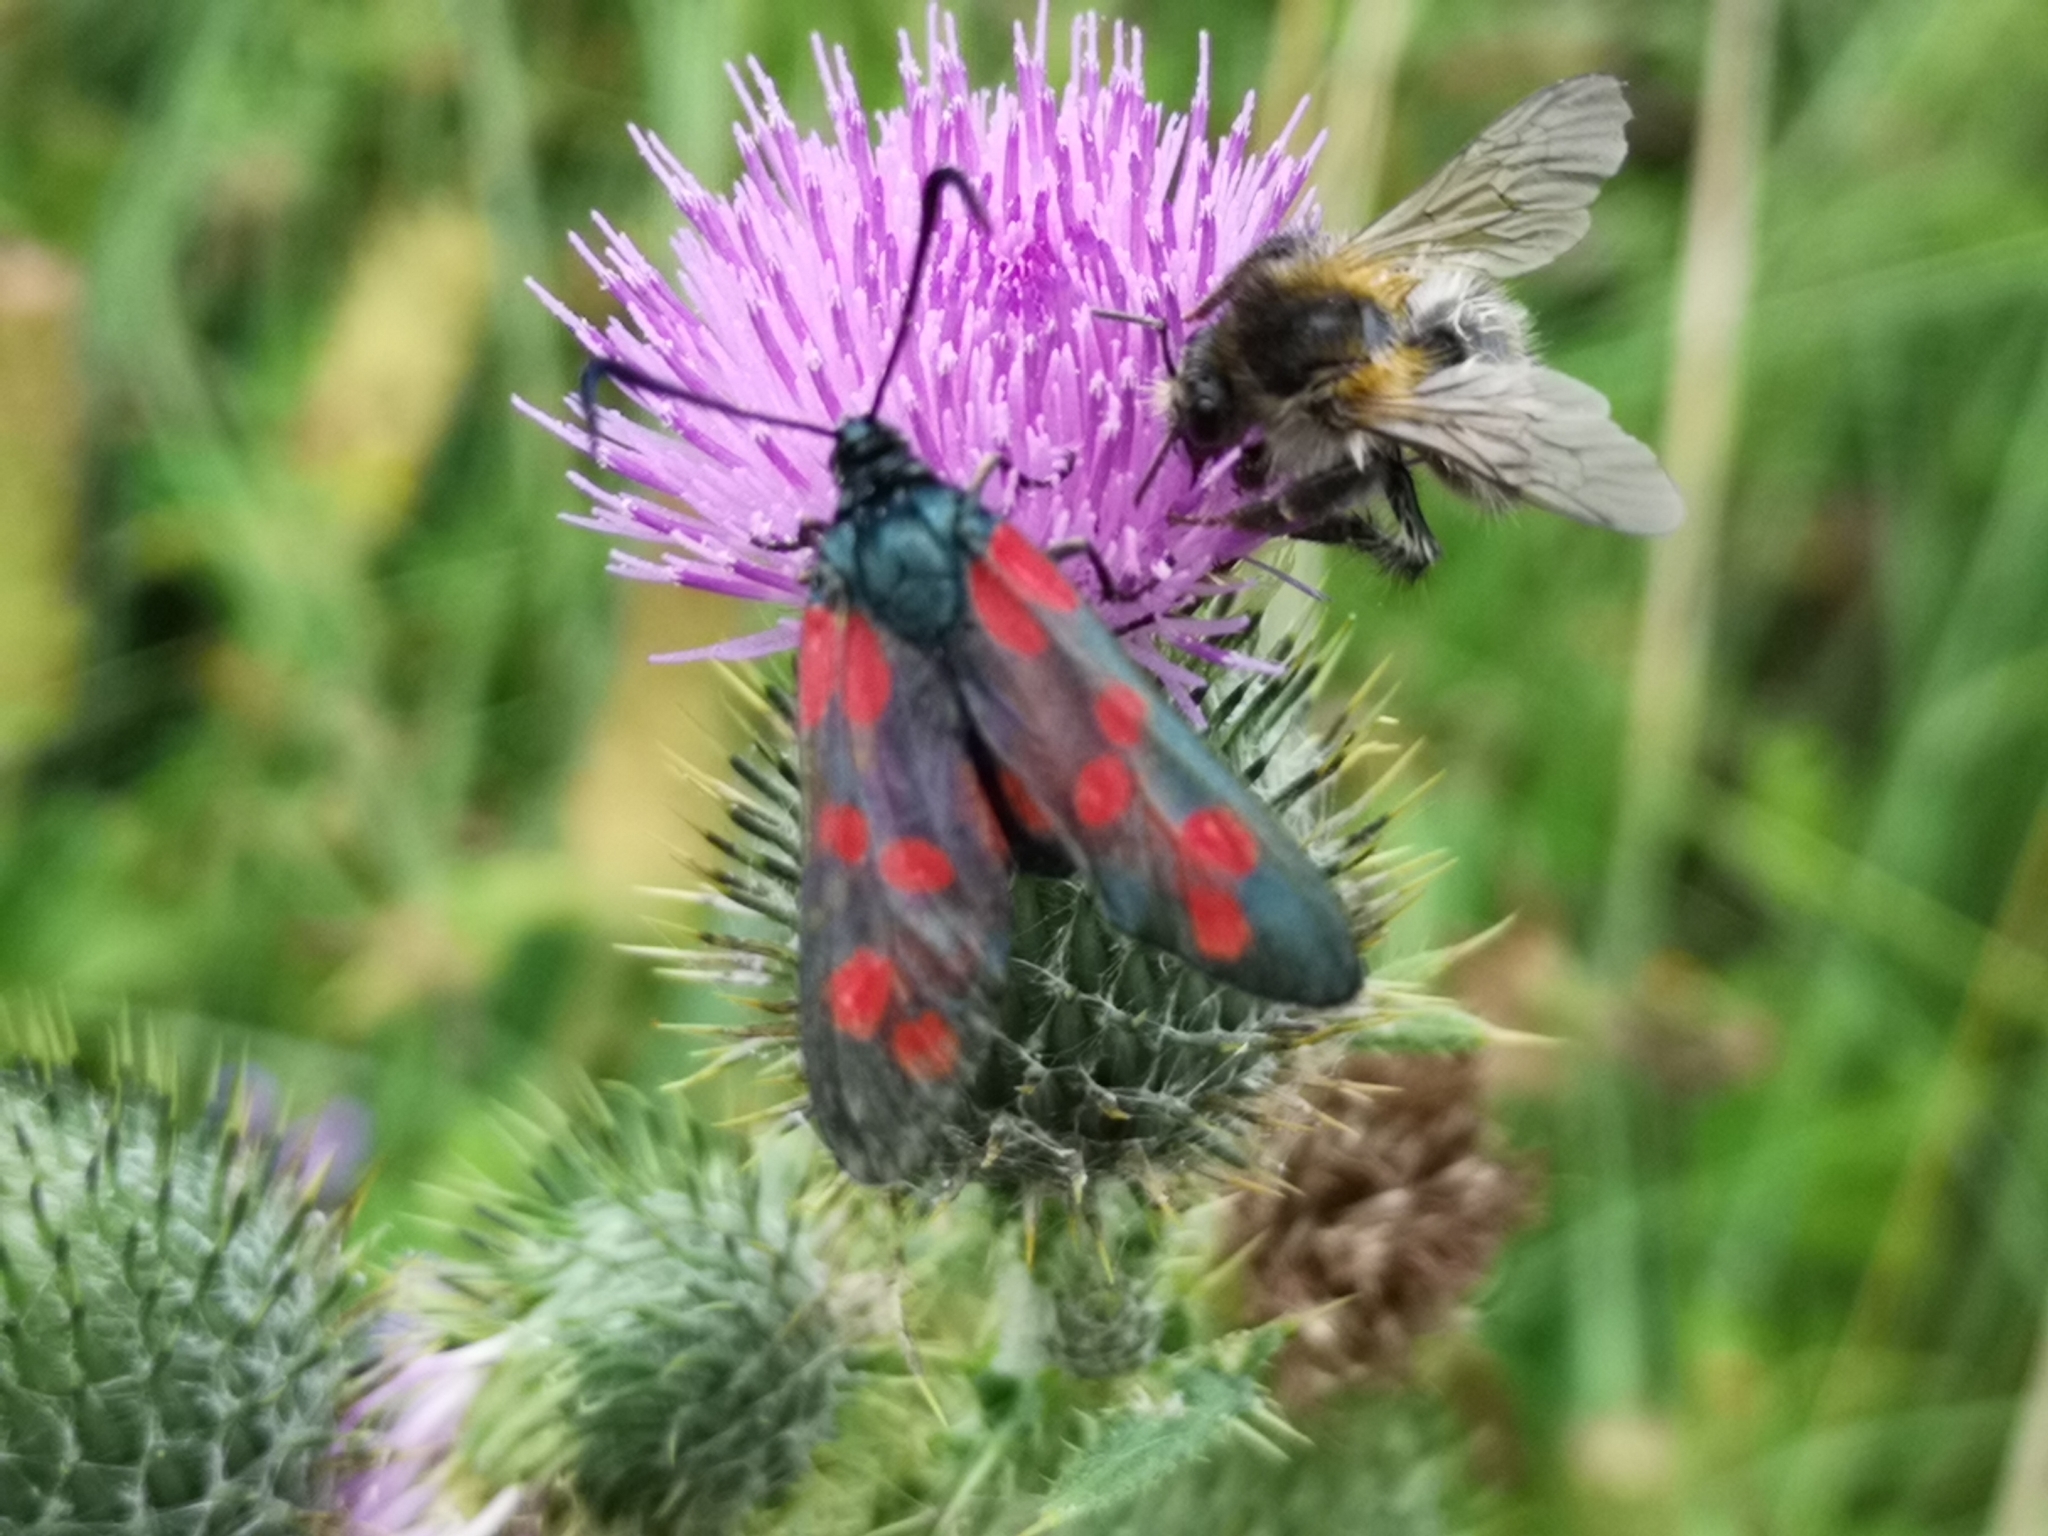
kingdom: Animalia
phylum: Arthropoda
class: Insecta
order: Lepidoptera
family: Zygaenidae
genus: Zygaena
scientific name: Zygaena filipendulae
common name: Six-spot burnet
